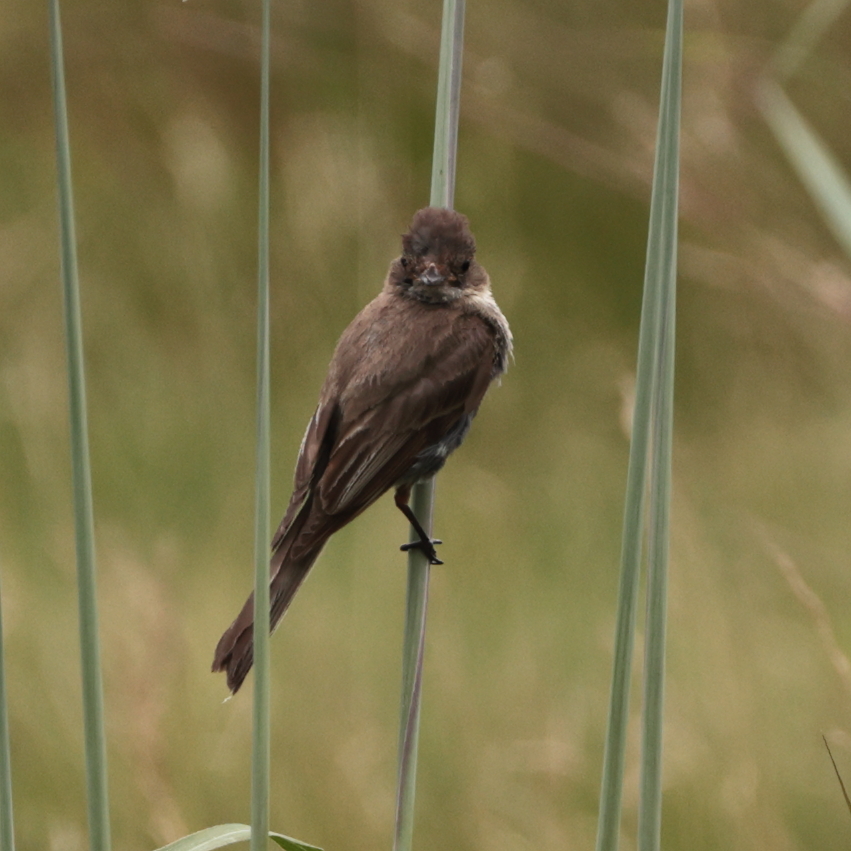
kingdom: Animalia
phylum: Chordata
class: Aves
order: Passeriformes
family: Tyrannidae
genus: Sayornis
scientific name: Sayornis phoebe
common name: Eastern phoebe
